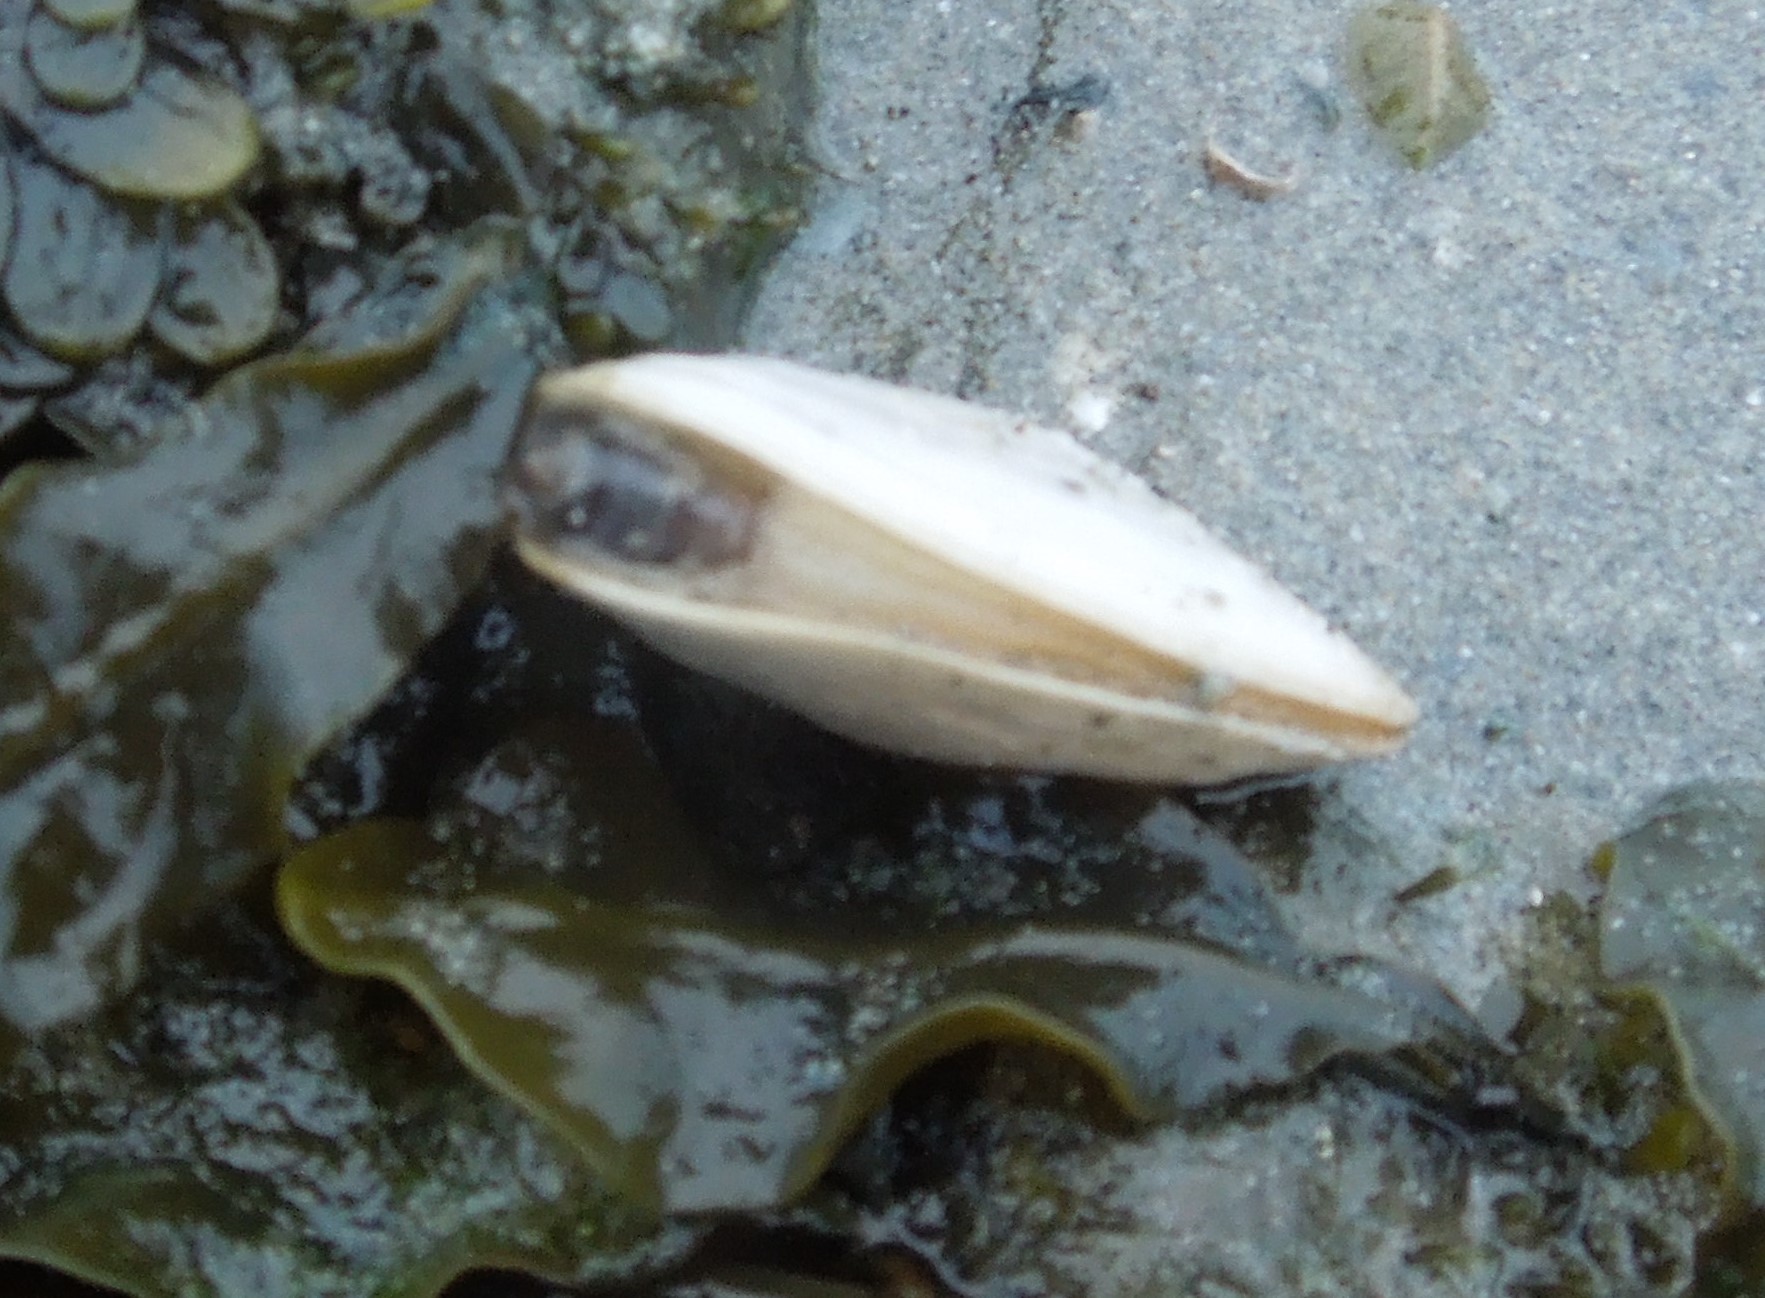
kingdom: Animalia
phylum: Mollusca
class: Bivalvia
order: Myida
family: Myidae
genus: Mya
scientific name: Mya arenaria
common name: Soft-shelled clam
